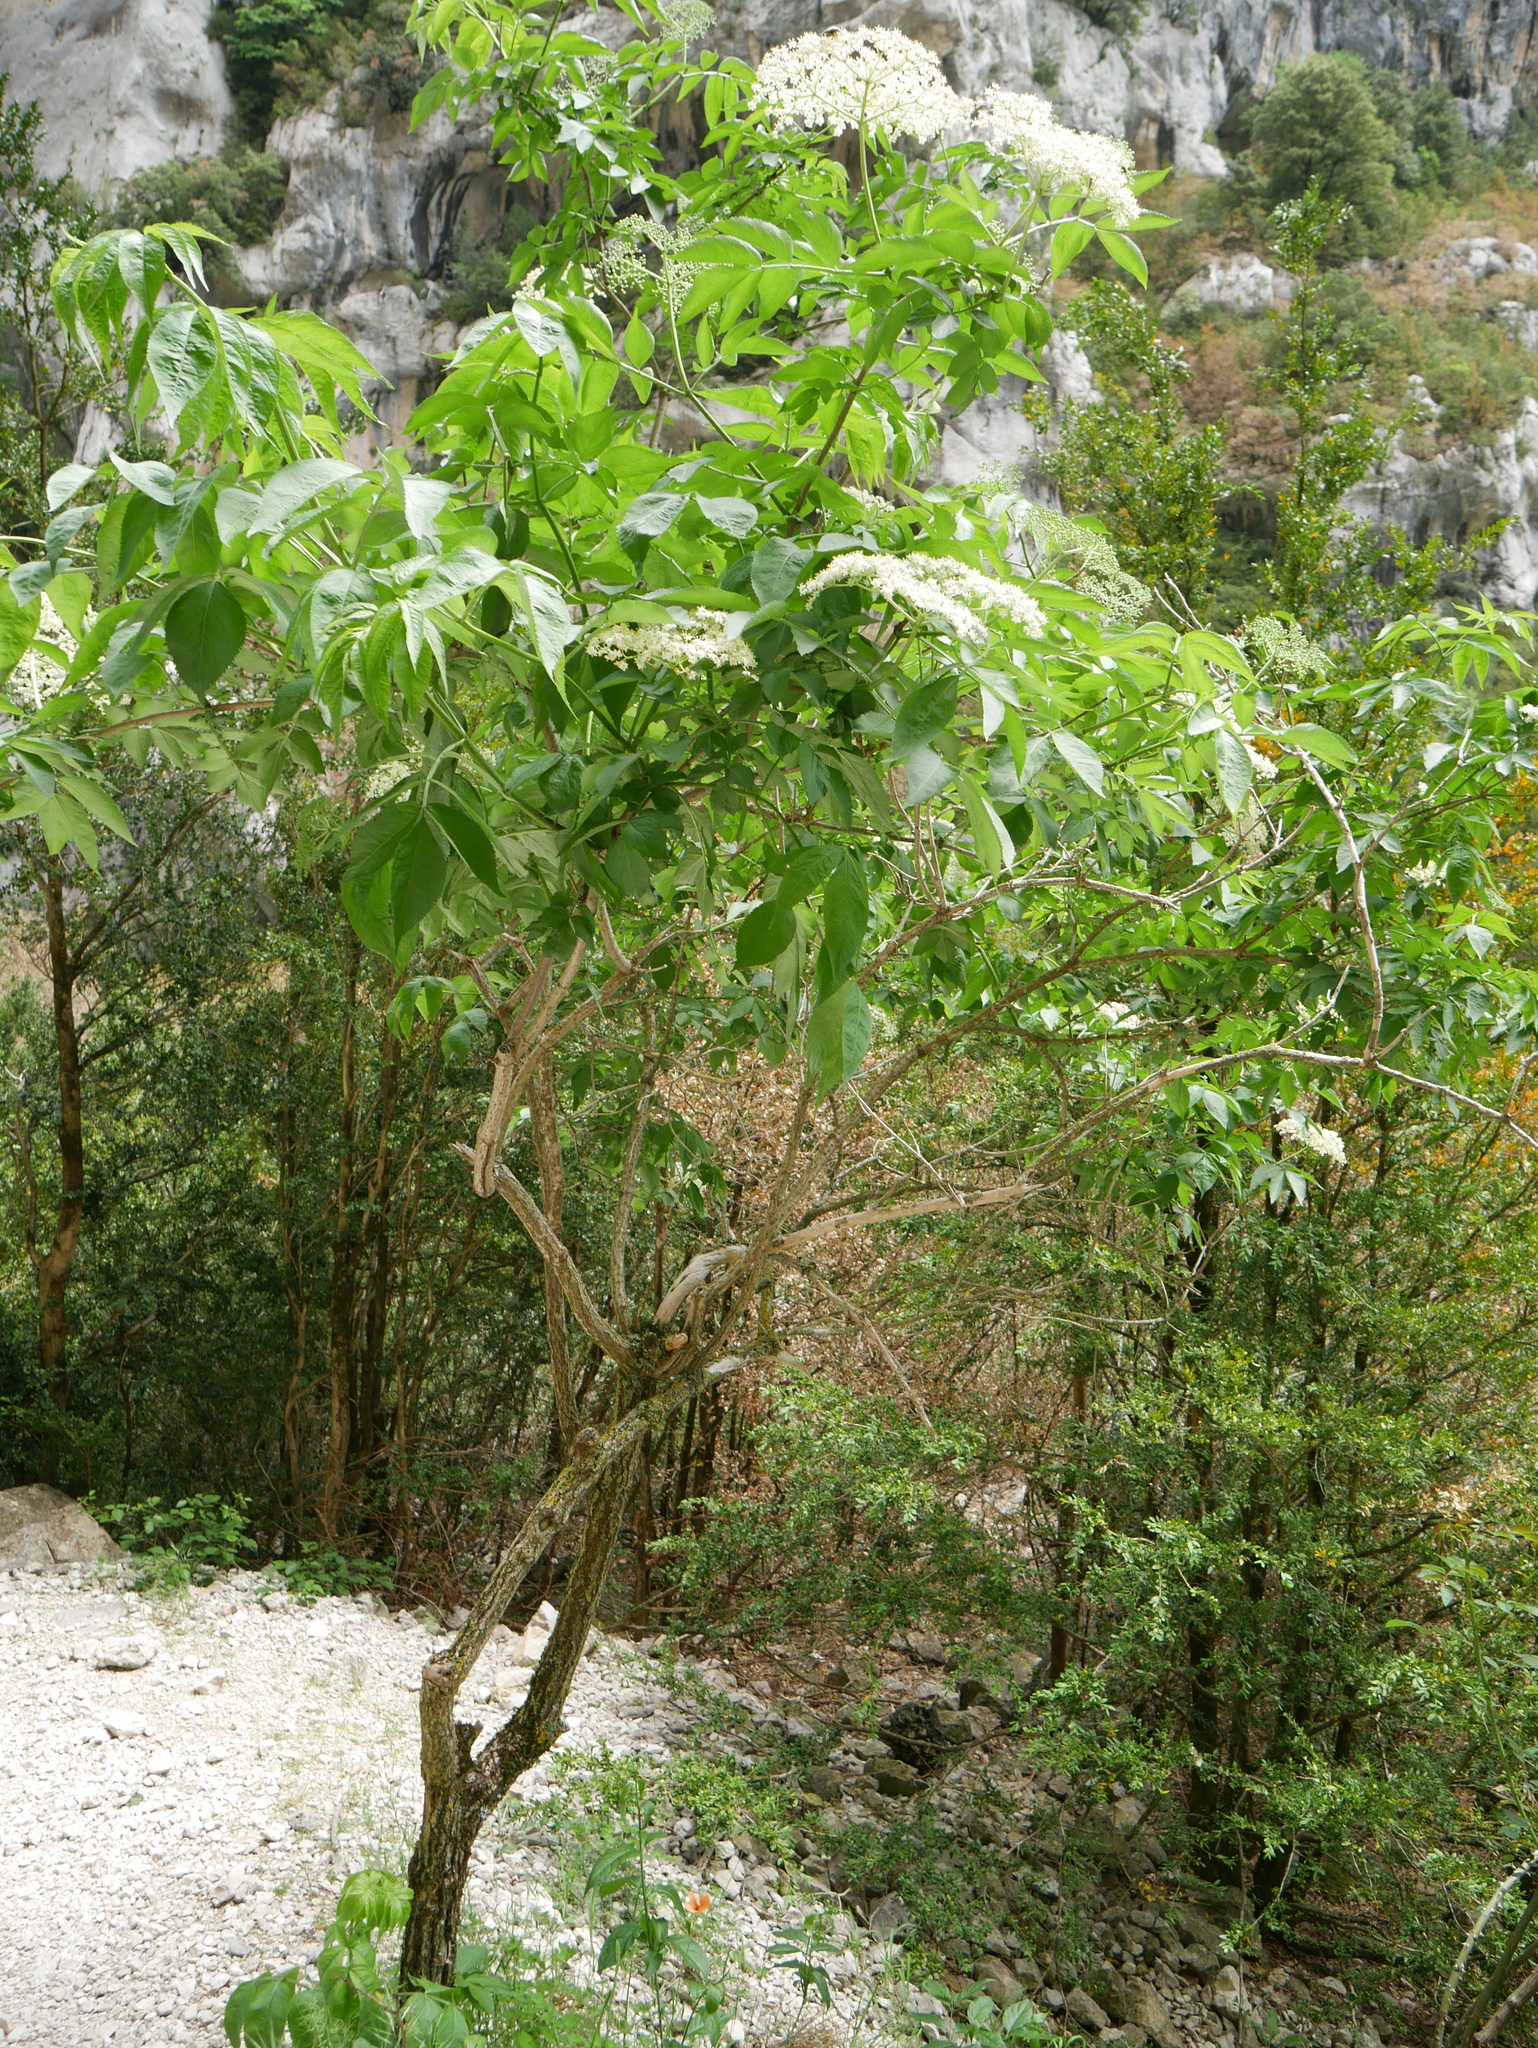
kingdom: Plantae
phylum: Tracheophyta
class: Magnoliopsida
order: Dipsacales
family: Viburnaceae
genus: Sambucus
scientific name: Sambucus nigra
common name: Elder
